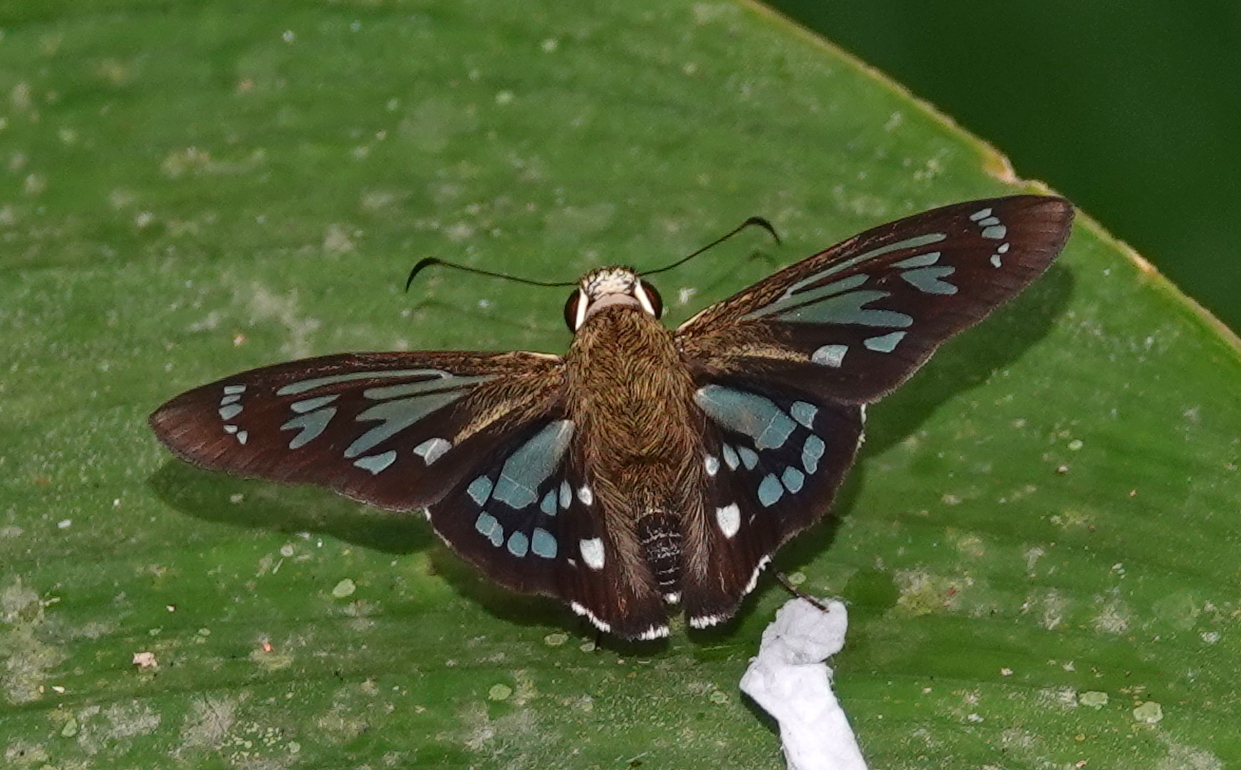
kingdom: Animalia
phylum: Arthropoda
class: Insecta
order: Lepidoptera
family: Hesperiidae
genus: Phanus
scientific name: Phanus vitreus
